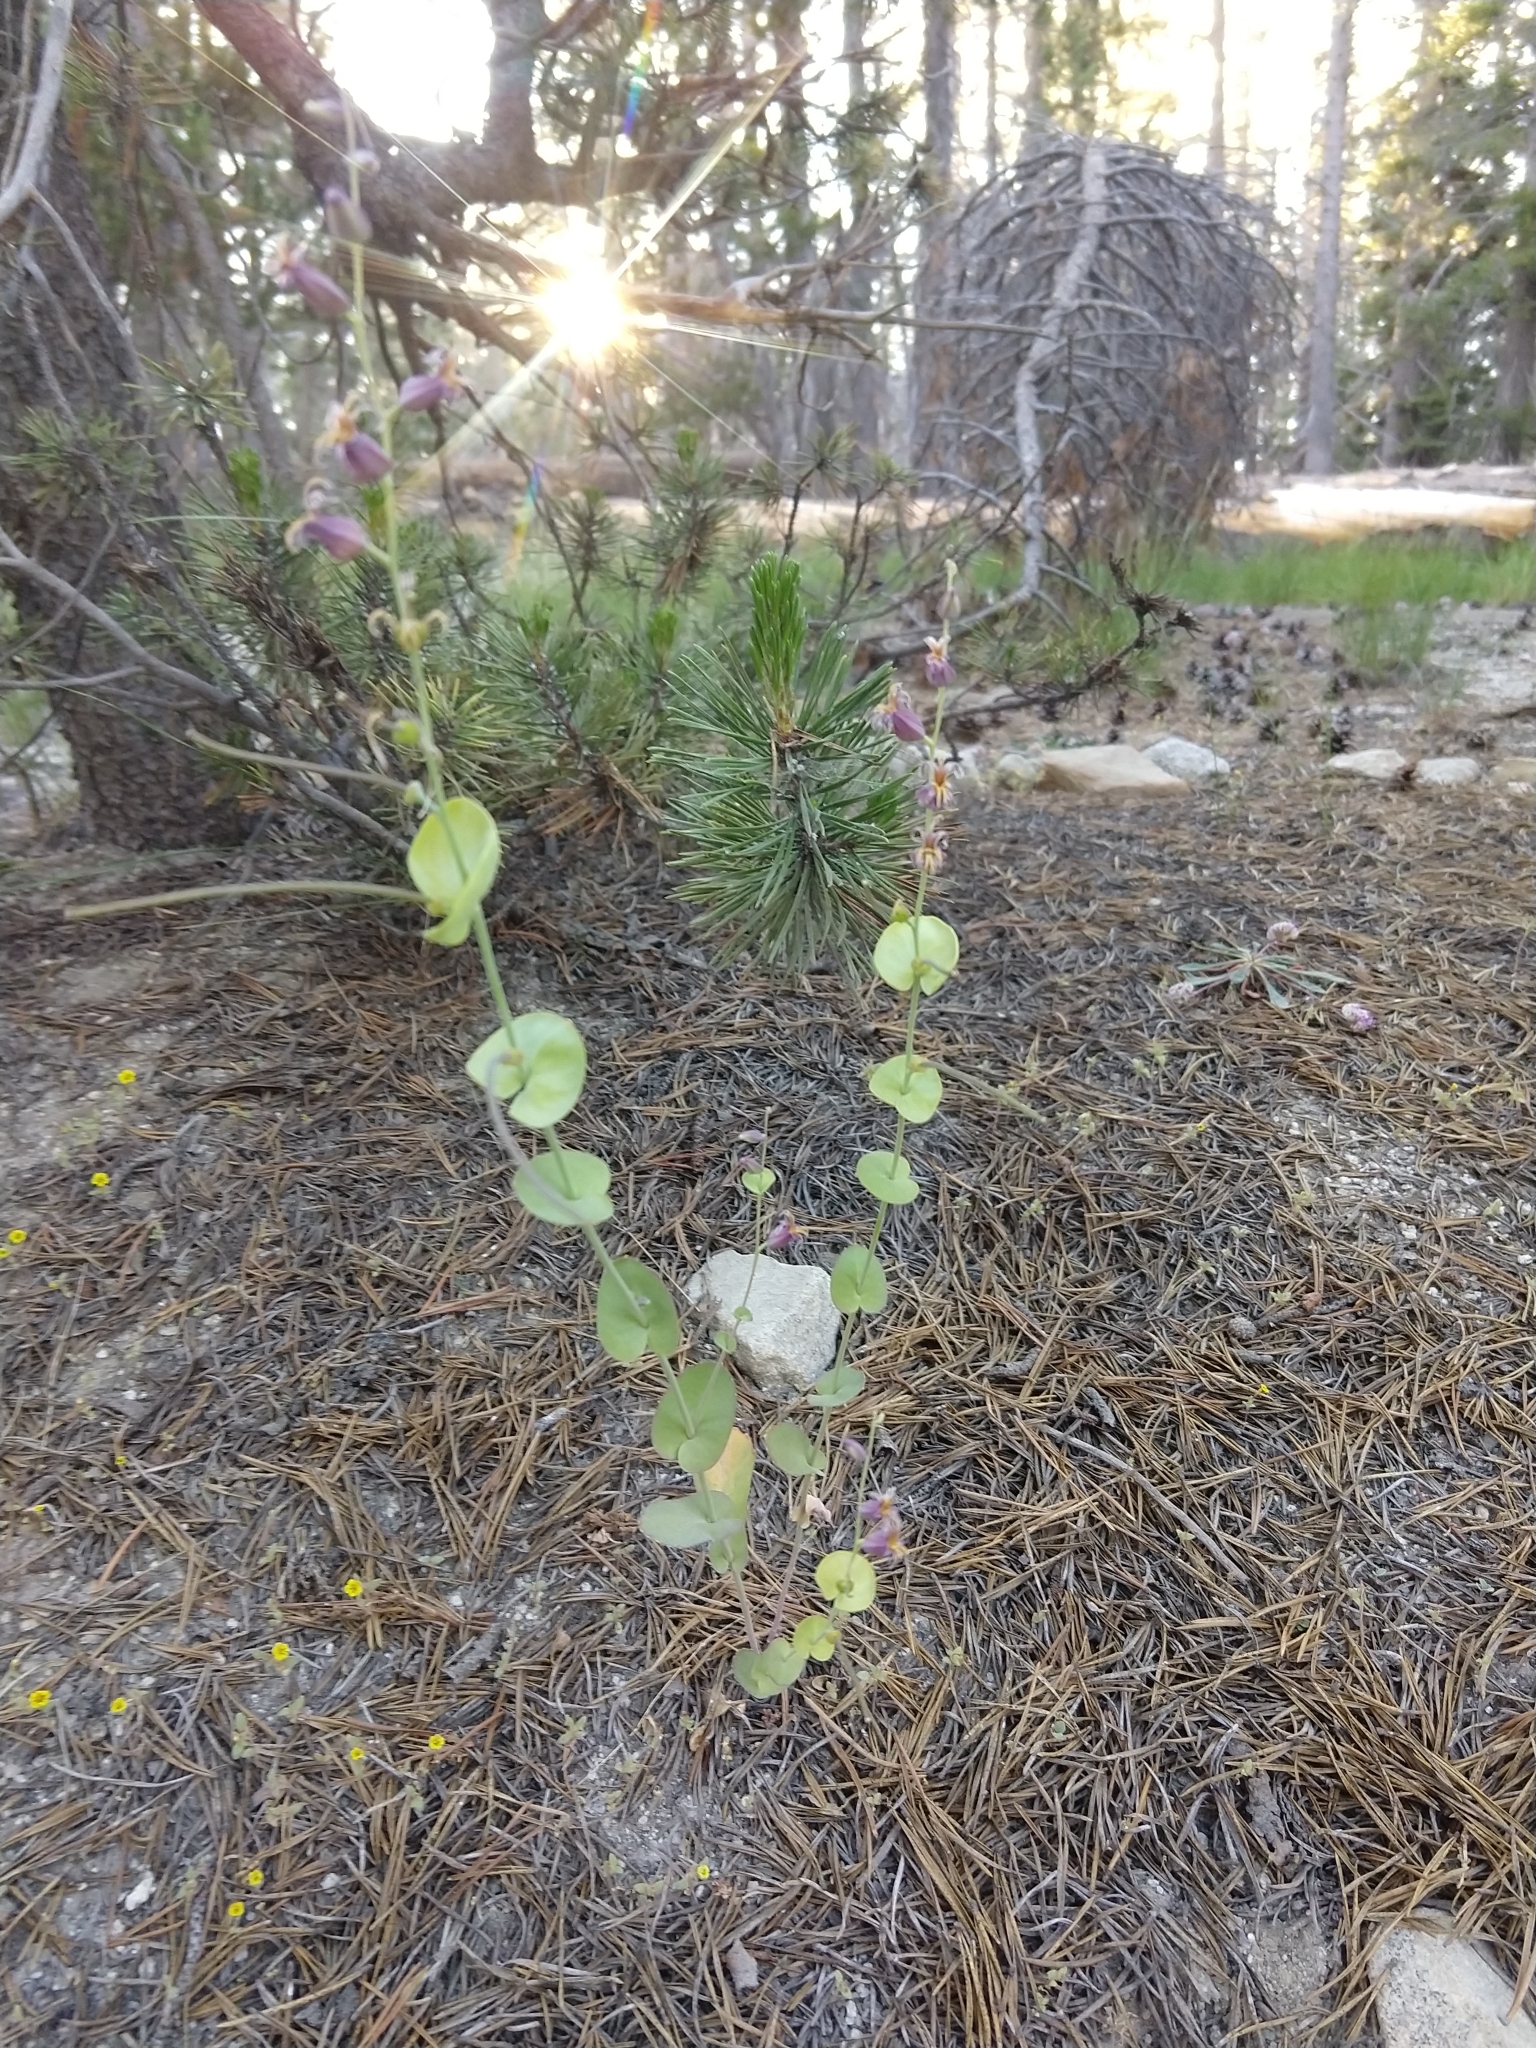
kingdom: Plantae
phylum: Tracheophyta
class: Magnoliopsida
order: Brassicales
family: Brassicaceae
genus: Streptanthus
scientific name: Streptanthus tortuosus
